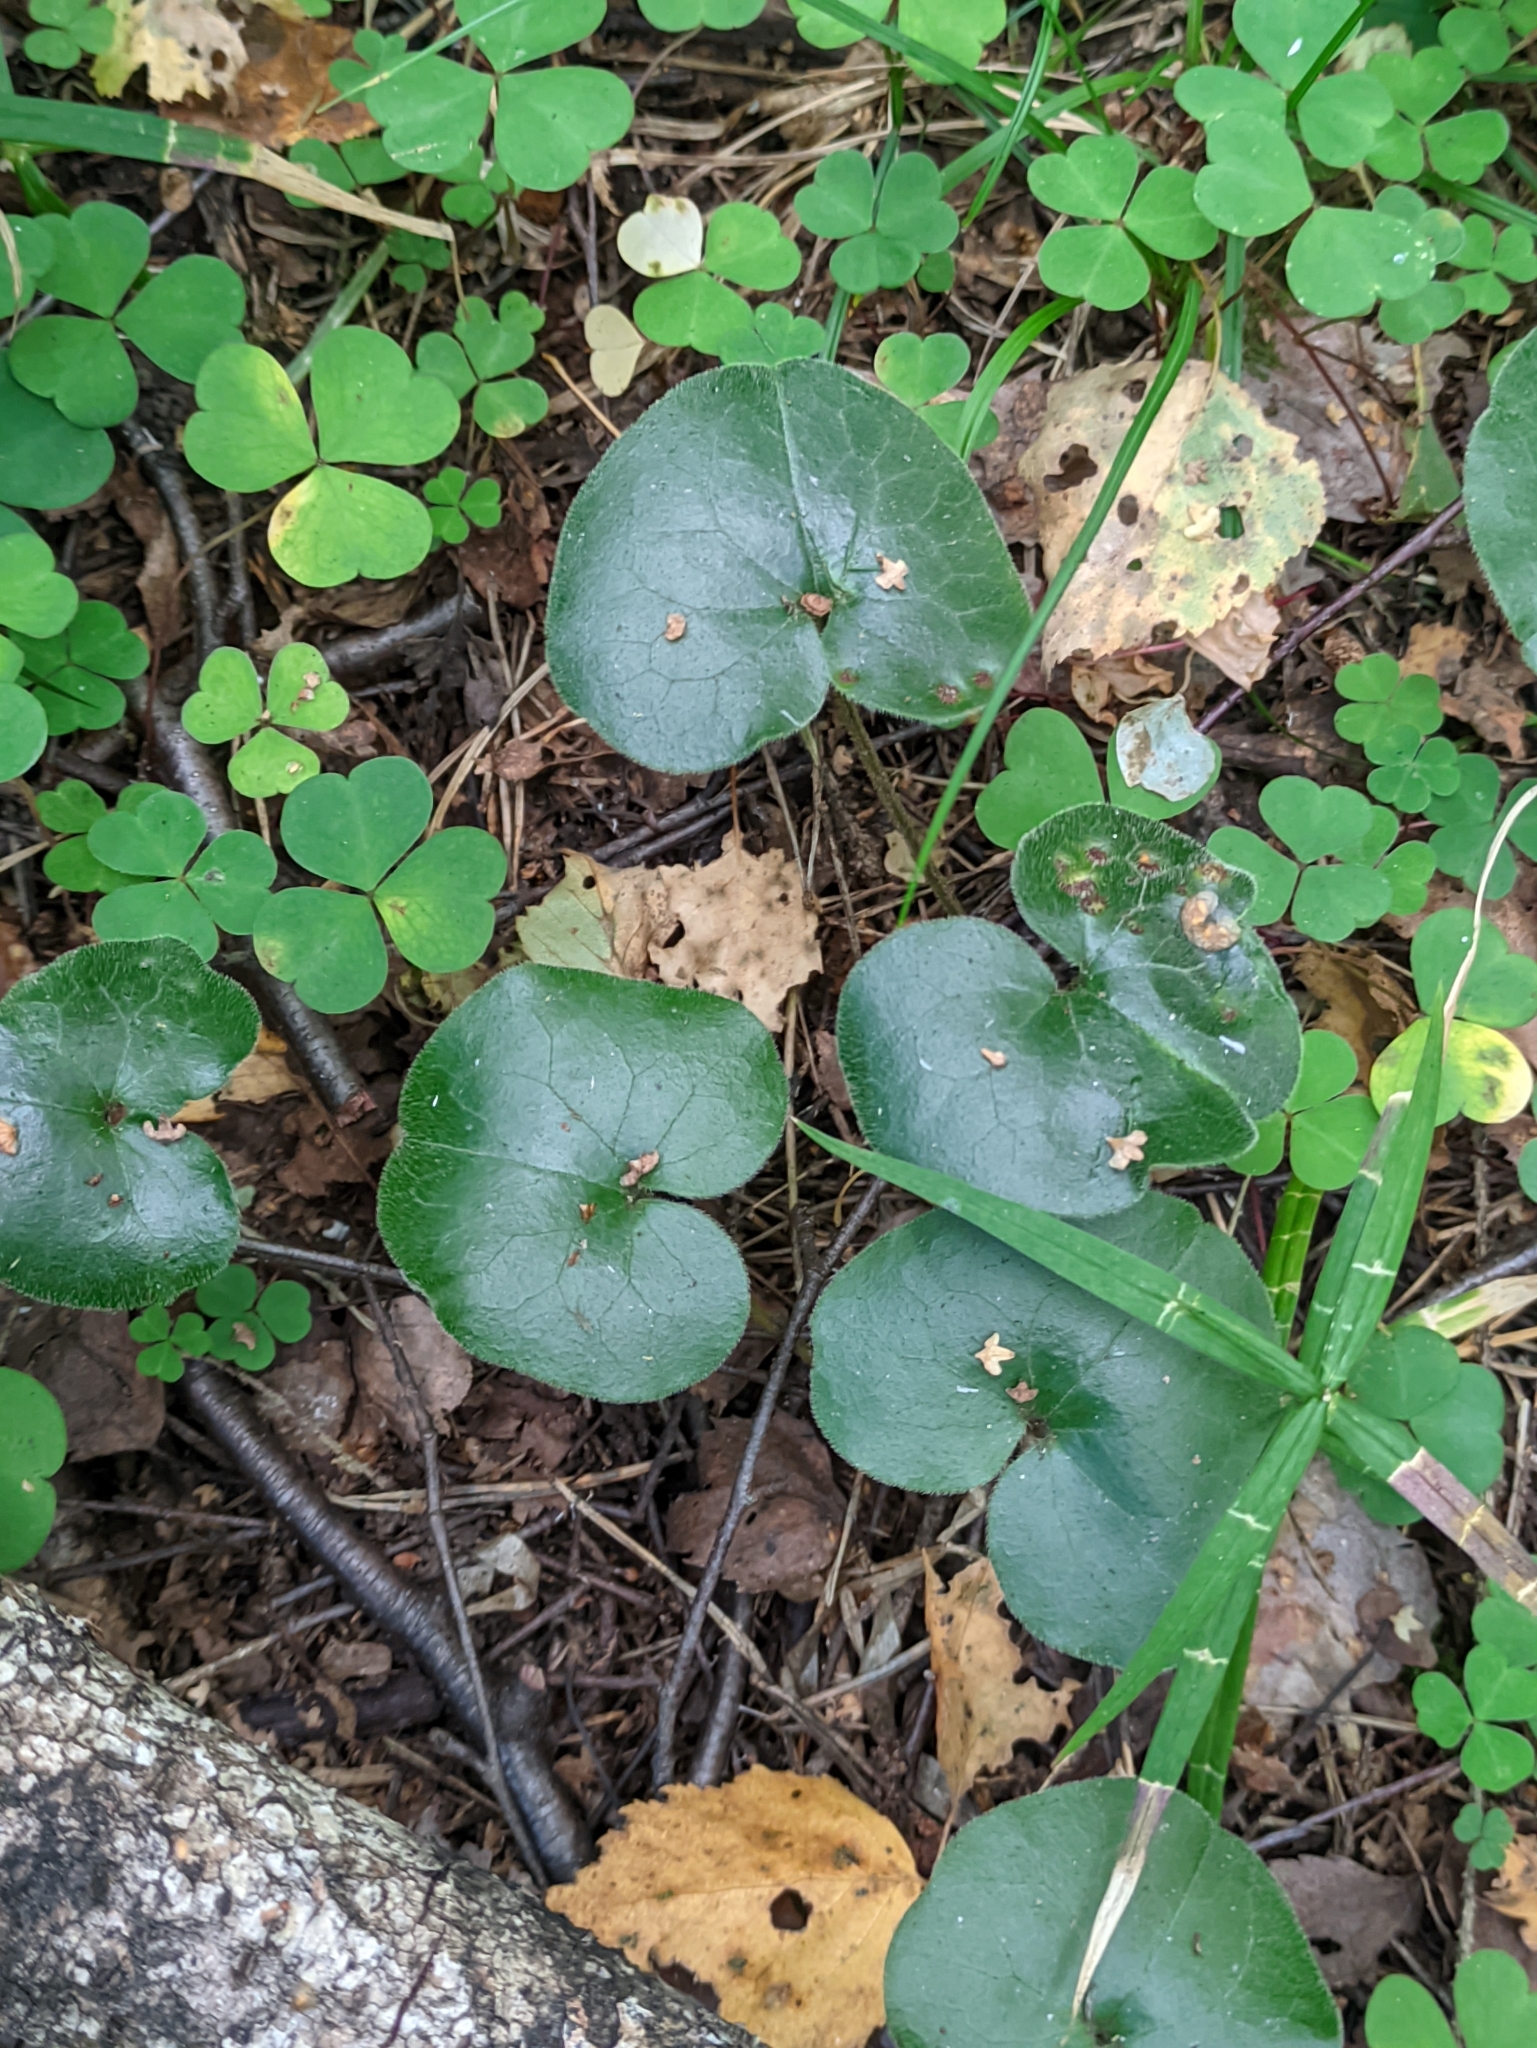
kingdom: Plantae
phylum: Tracheophyta
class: Magnoliopsida
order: Piperales
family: Aristolochiaceae
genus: Asarum
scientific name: Asarum europaeum
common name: Asarabacca
